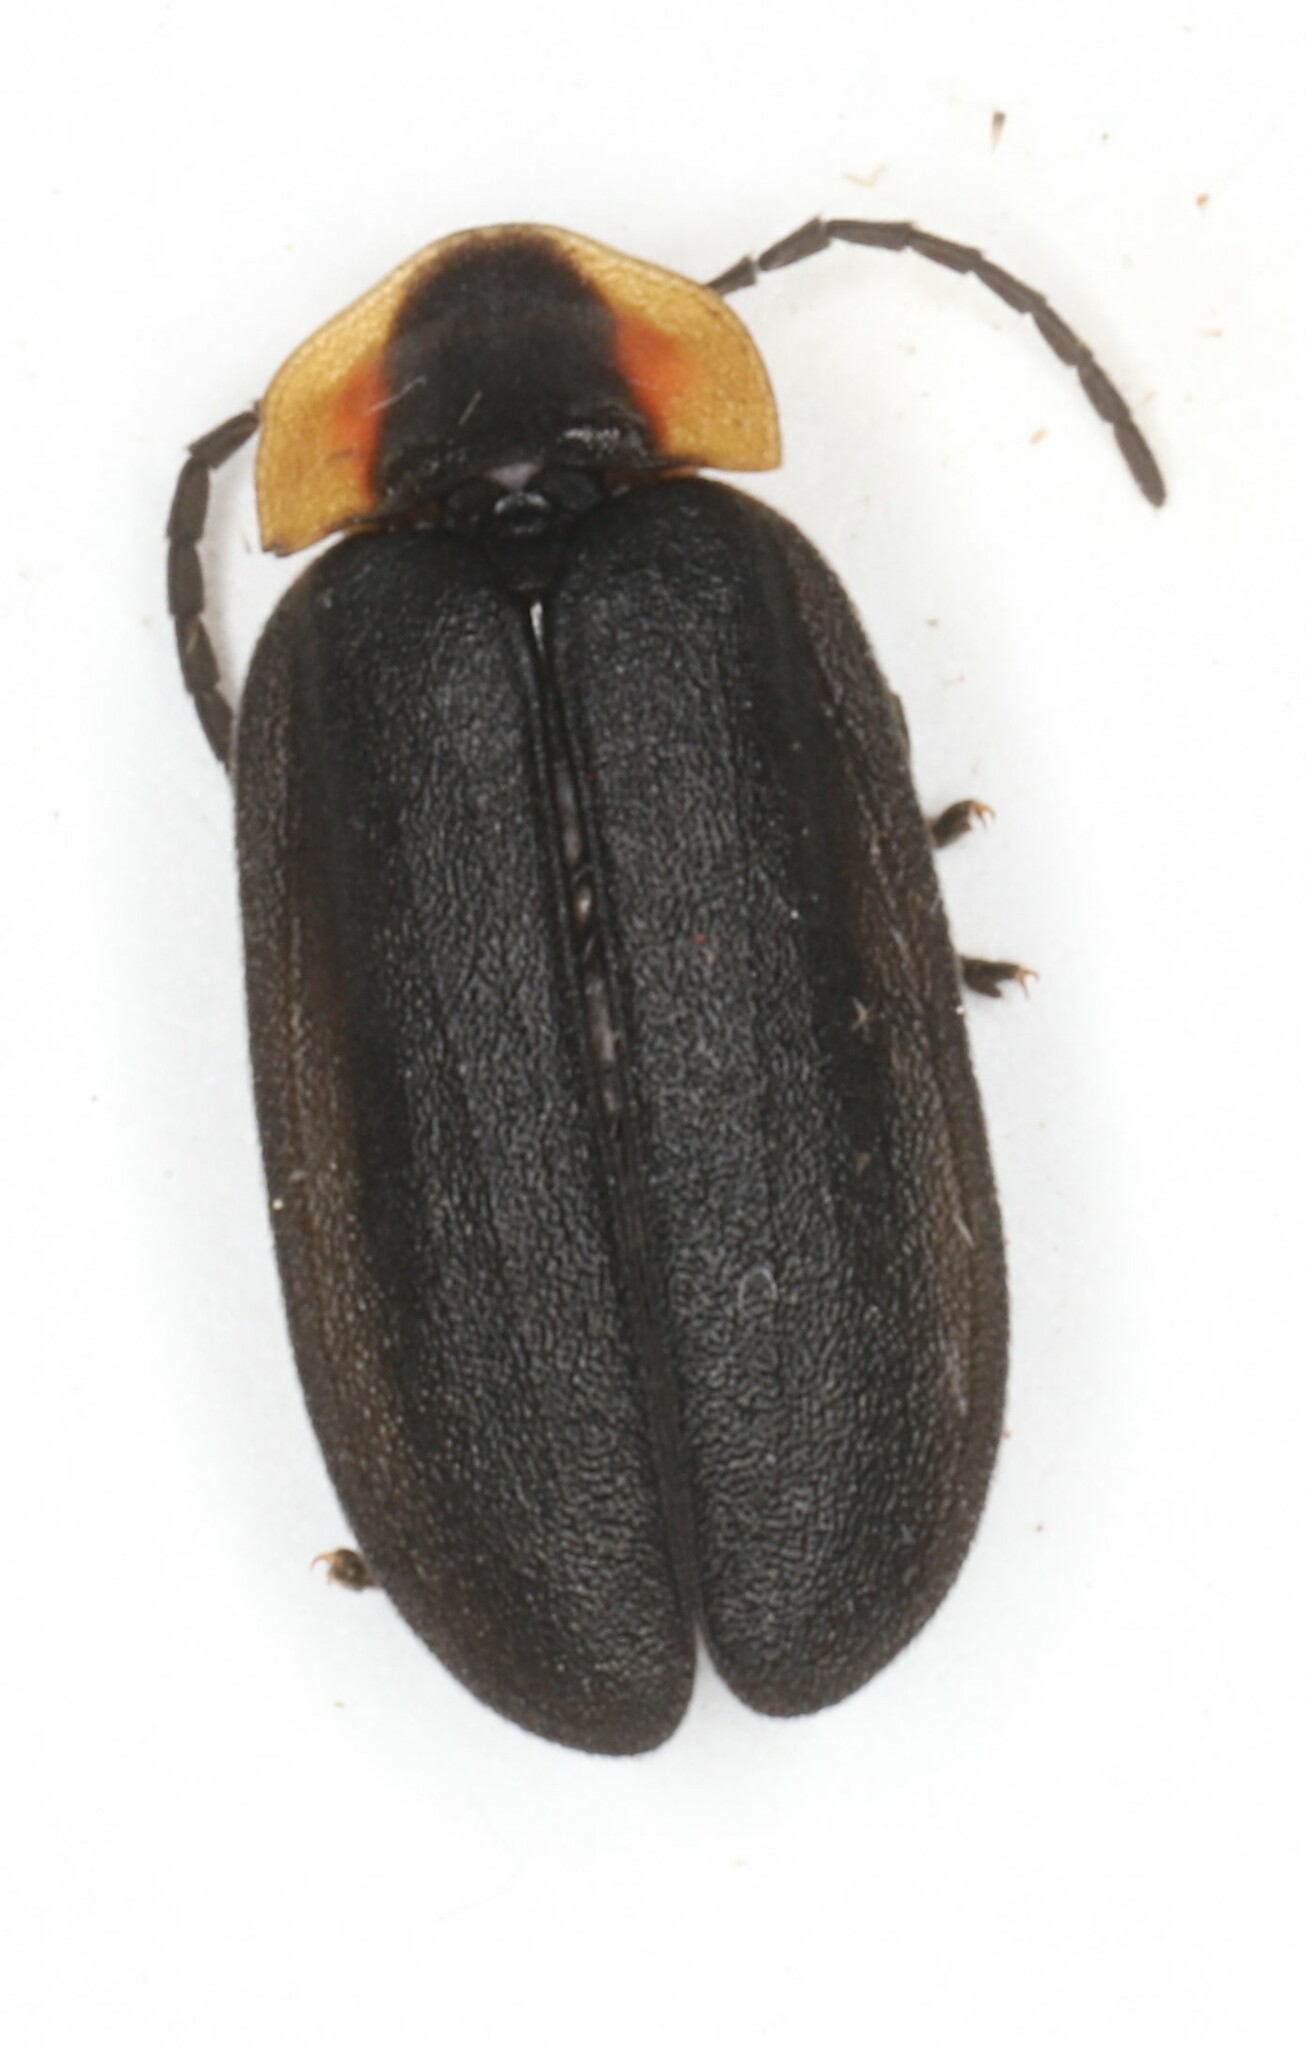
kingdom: Animalia
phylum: Arthropoda
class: Insecta
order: Coleoptera
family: Lampyridae
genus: Lucidota
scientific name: Lucidota atra
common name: Black firefly
